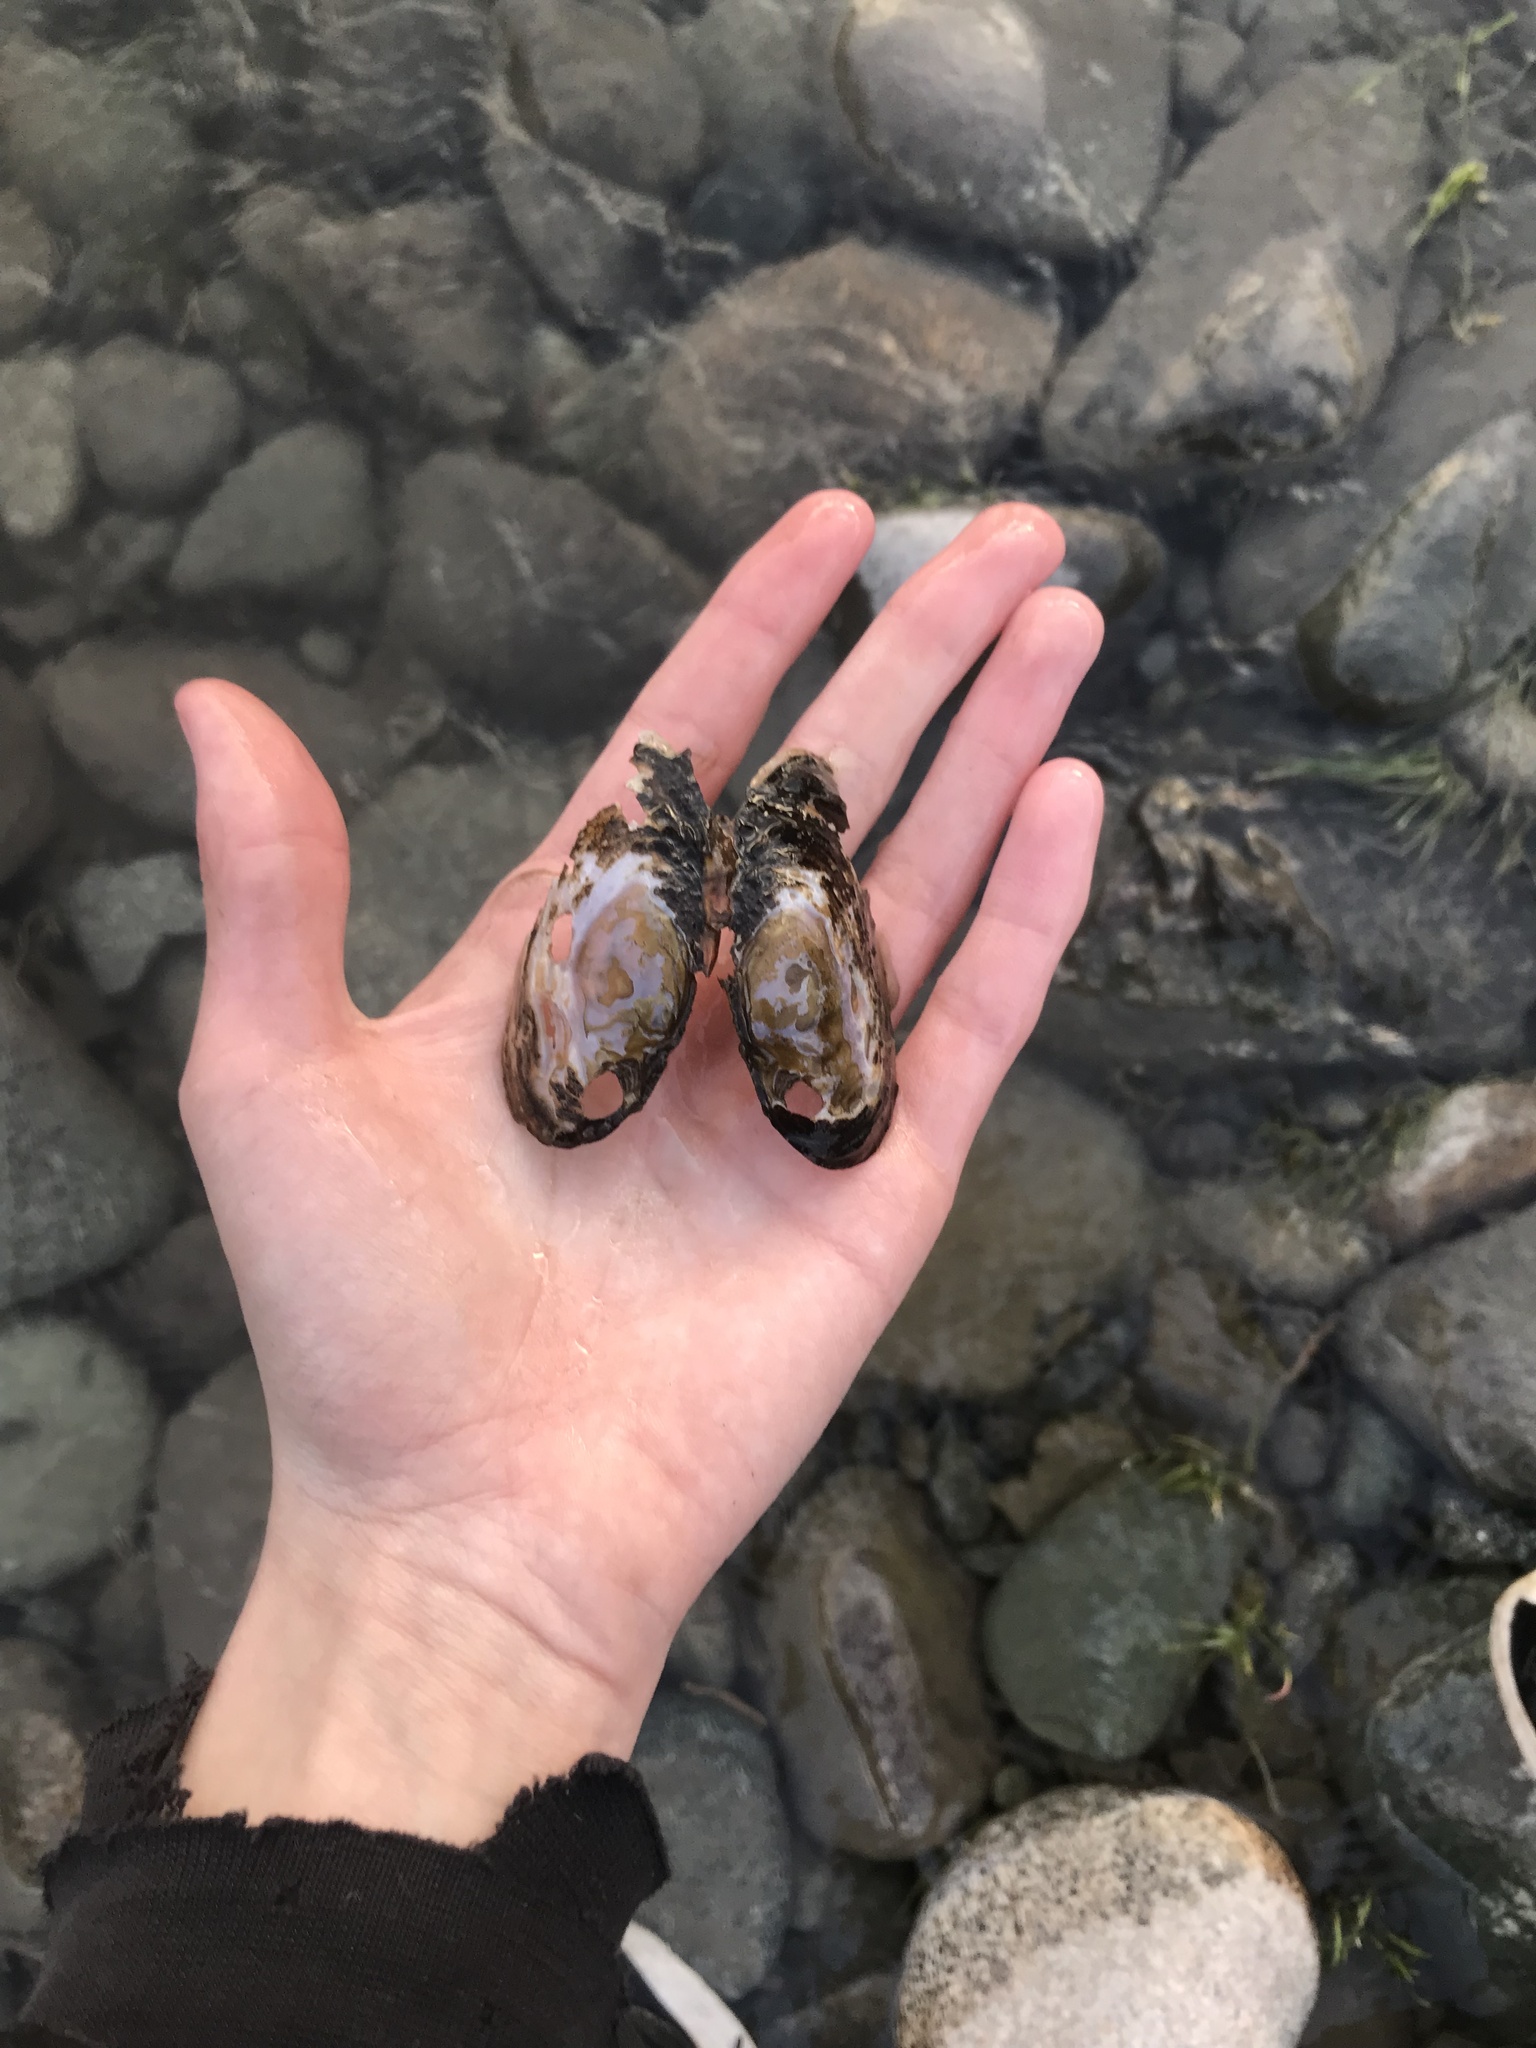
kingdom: Animalia
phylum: Mollusca
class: Bivalvia
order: Unionida
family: Margaritiferidae
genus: Margaritifera
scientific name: Margaritifera falcata
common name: Western pearlshell
